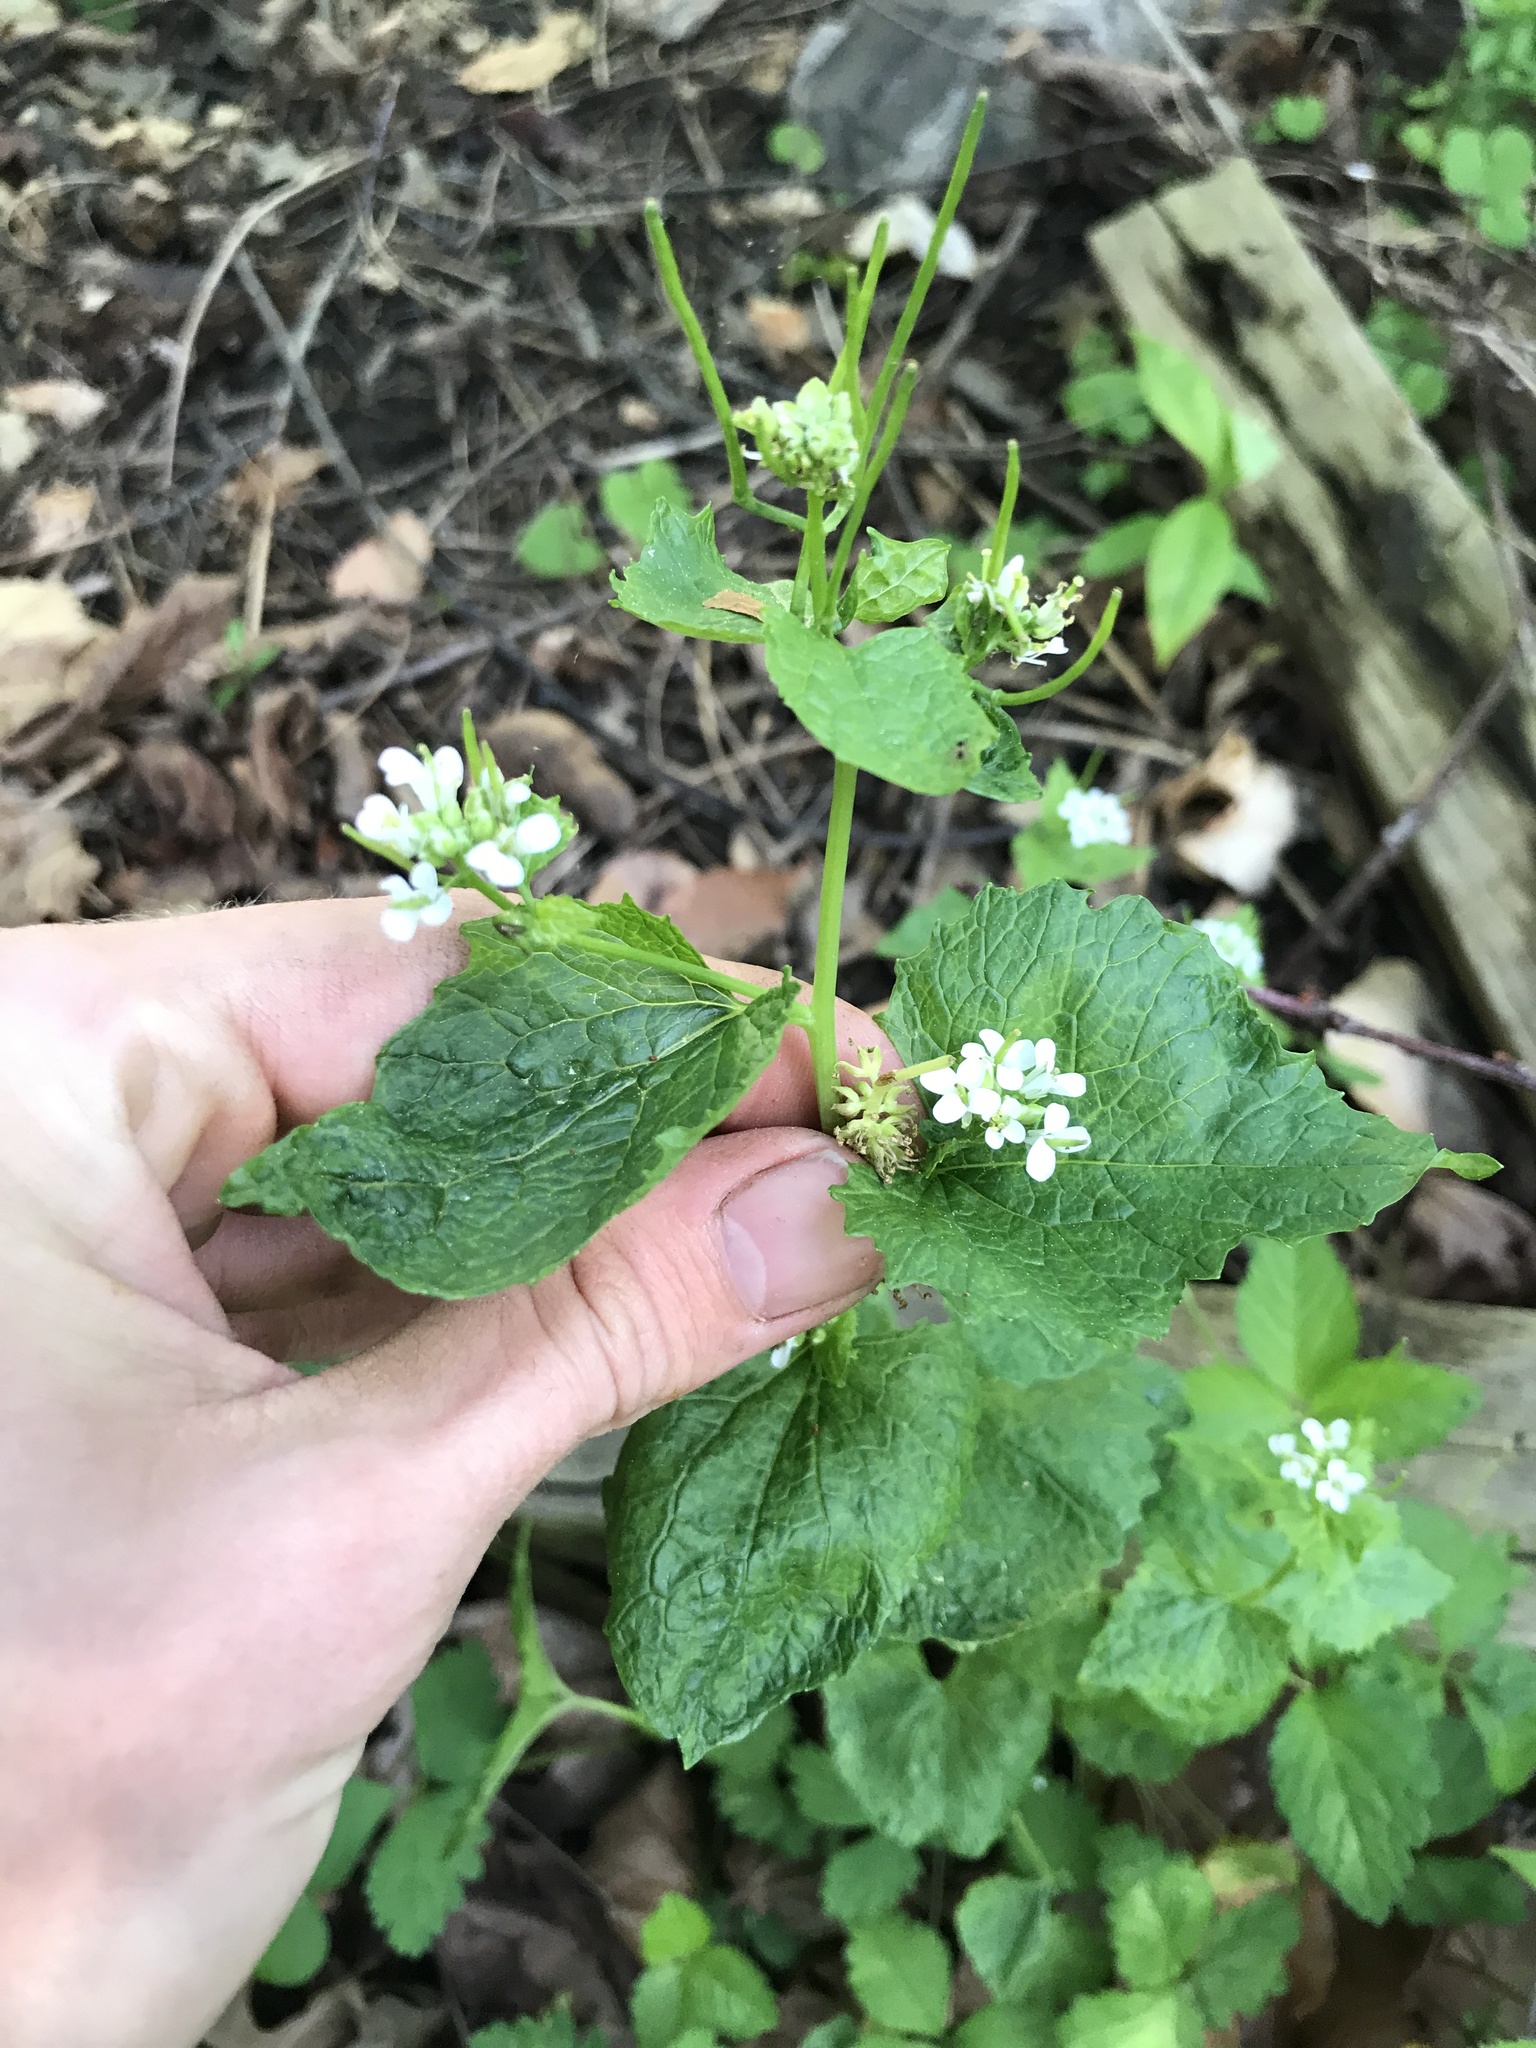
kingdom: Plantae
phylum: Tracheophyta
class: Magnoliopsida
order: Brassicales
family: Brassicaceae
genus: Alliaria
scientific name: Alliaria petiolata
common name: Garlic mustard
